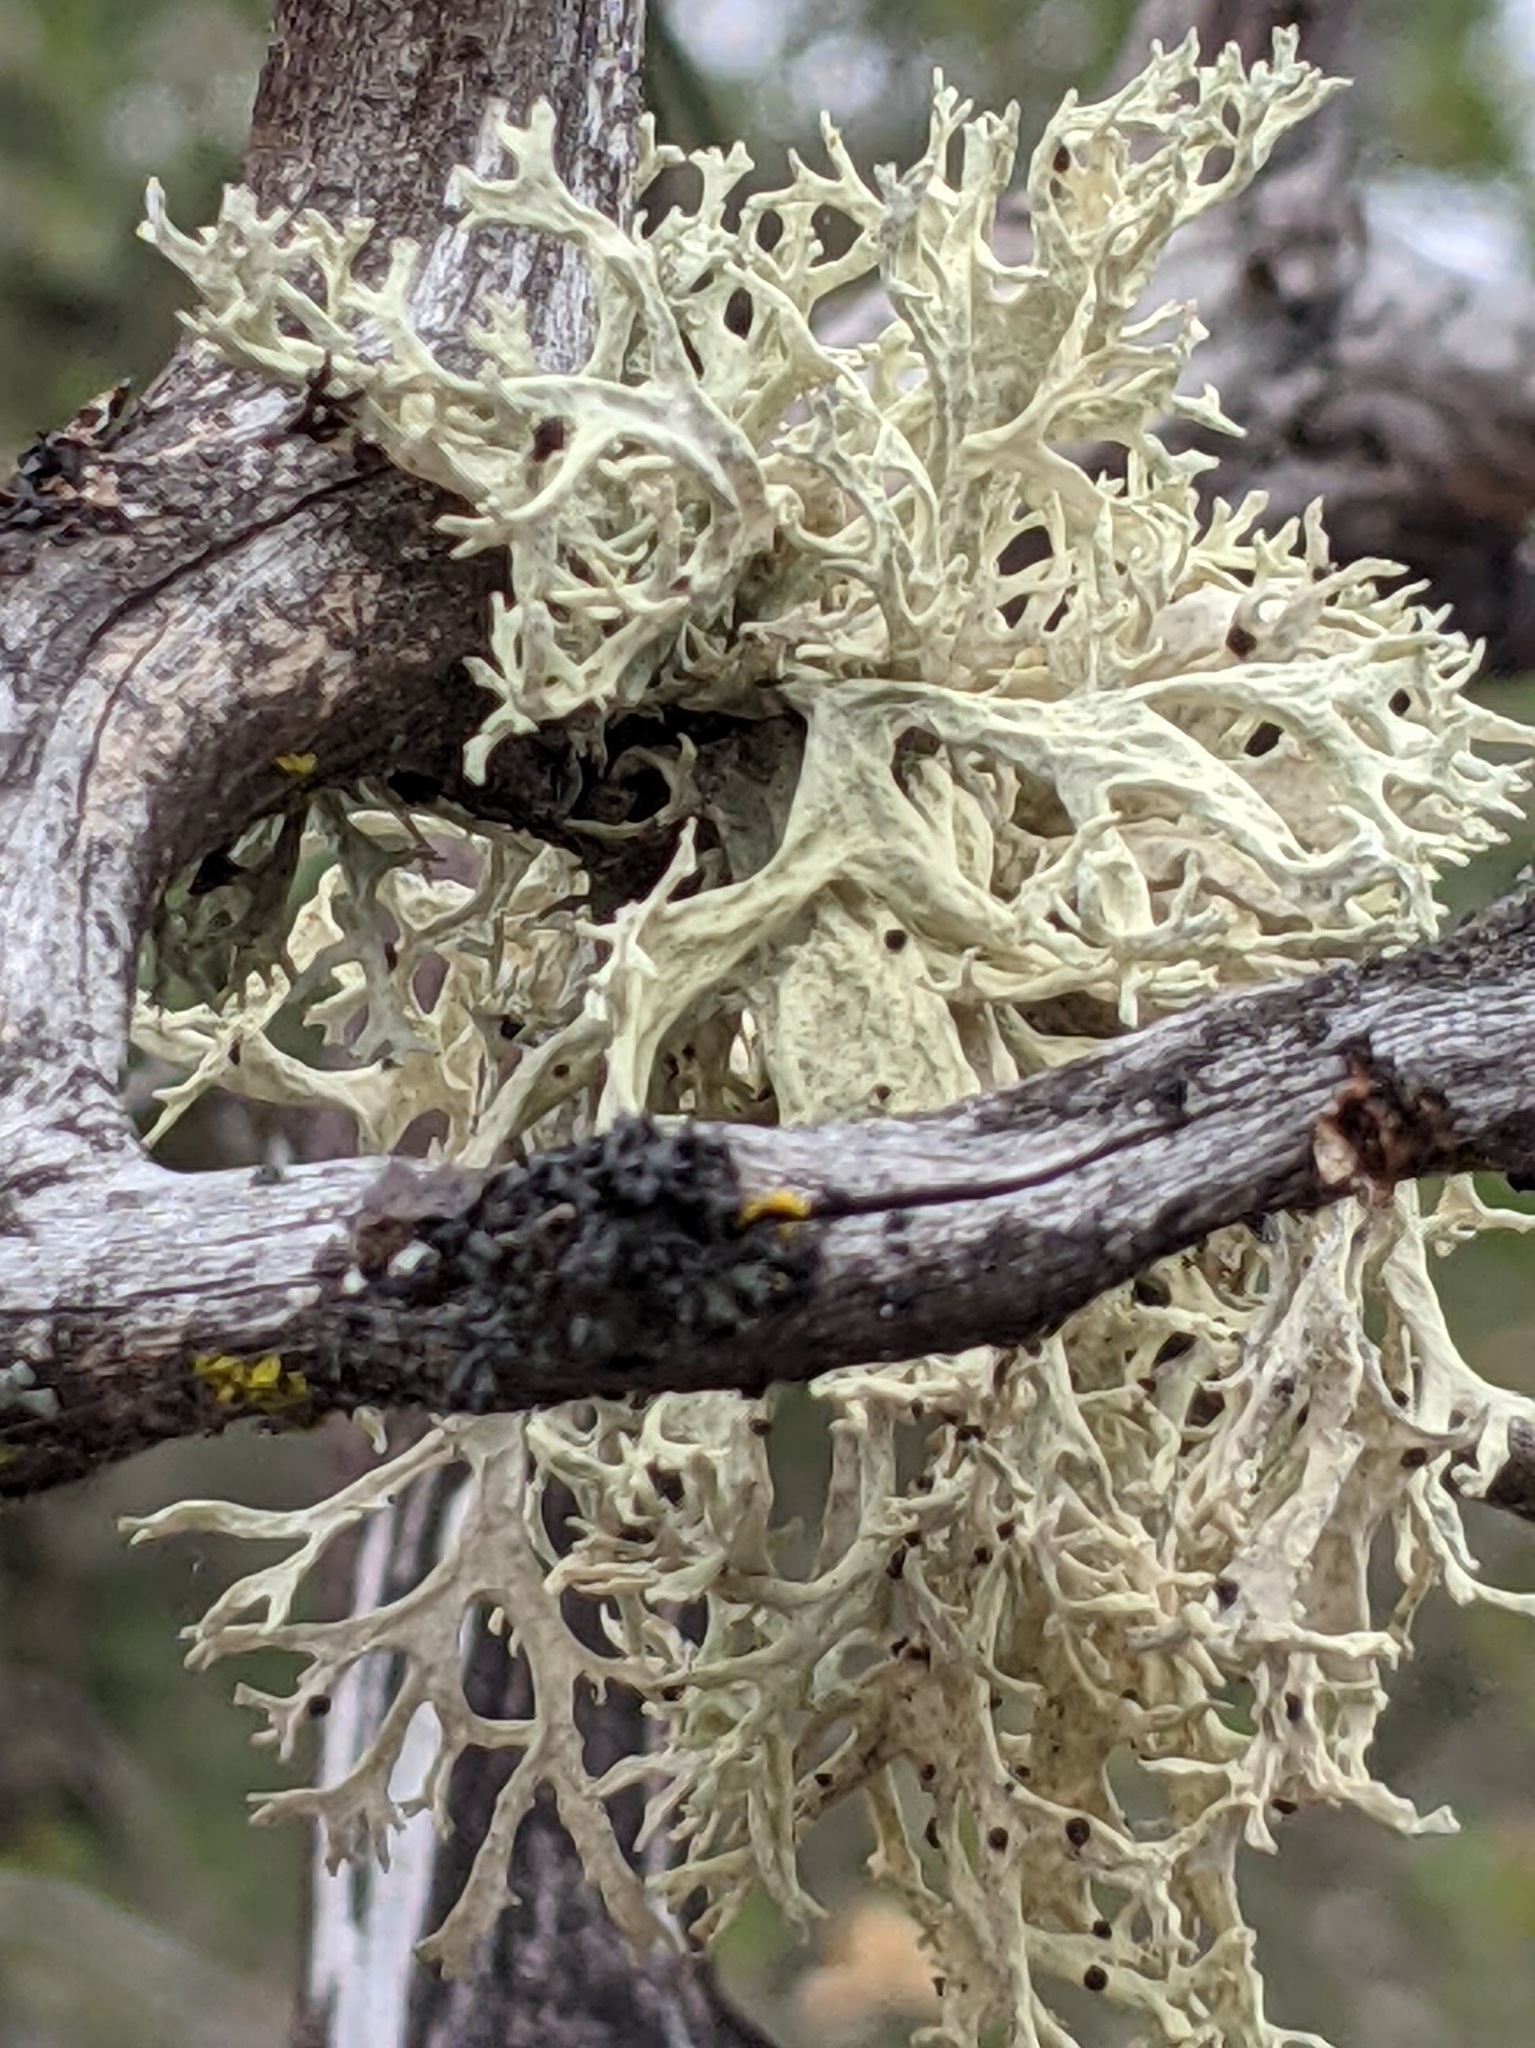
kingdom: Fungi
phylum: Ascomycota
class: Lecanoromycetes
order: Lecanorales
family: Parmeliaceae
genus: Evernia
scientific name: Evernia prunastri
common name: Oak moss
